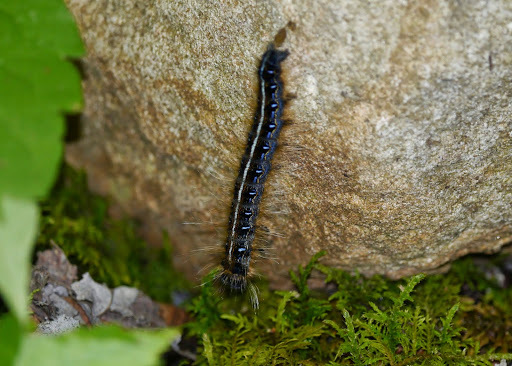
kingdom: Animalia
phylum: Arthropoda
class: Insecta
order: Lepidoptera
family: Lasiocampidae
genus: Malacosoma
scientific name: Malacosoma americana
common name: Eastern tent caterpillar moth
